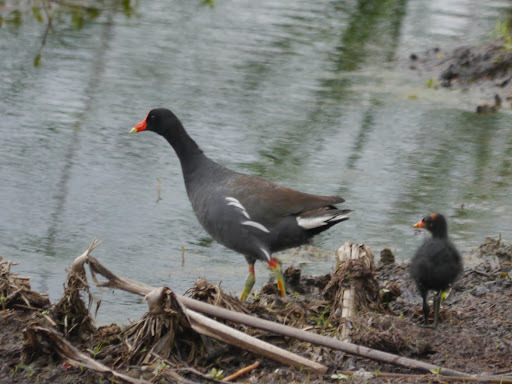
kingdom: Animalia
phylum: Chordata
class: Aves
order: Gruiformes
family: Rallidae
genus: Gallinula
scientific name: Gallinula chloropus
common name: Common moorhen
